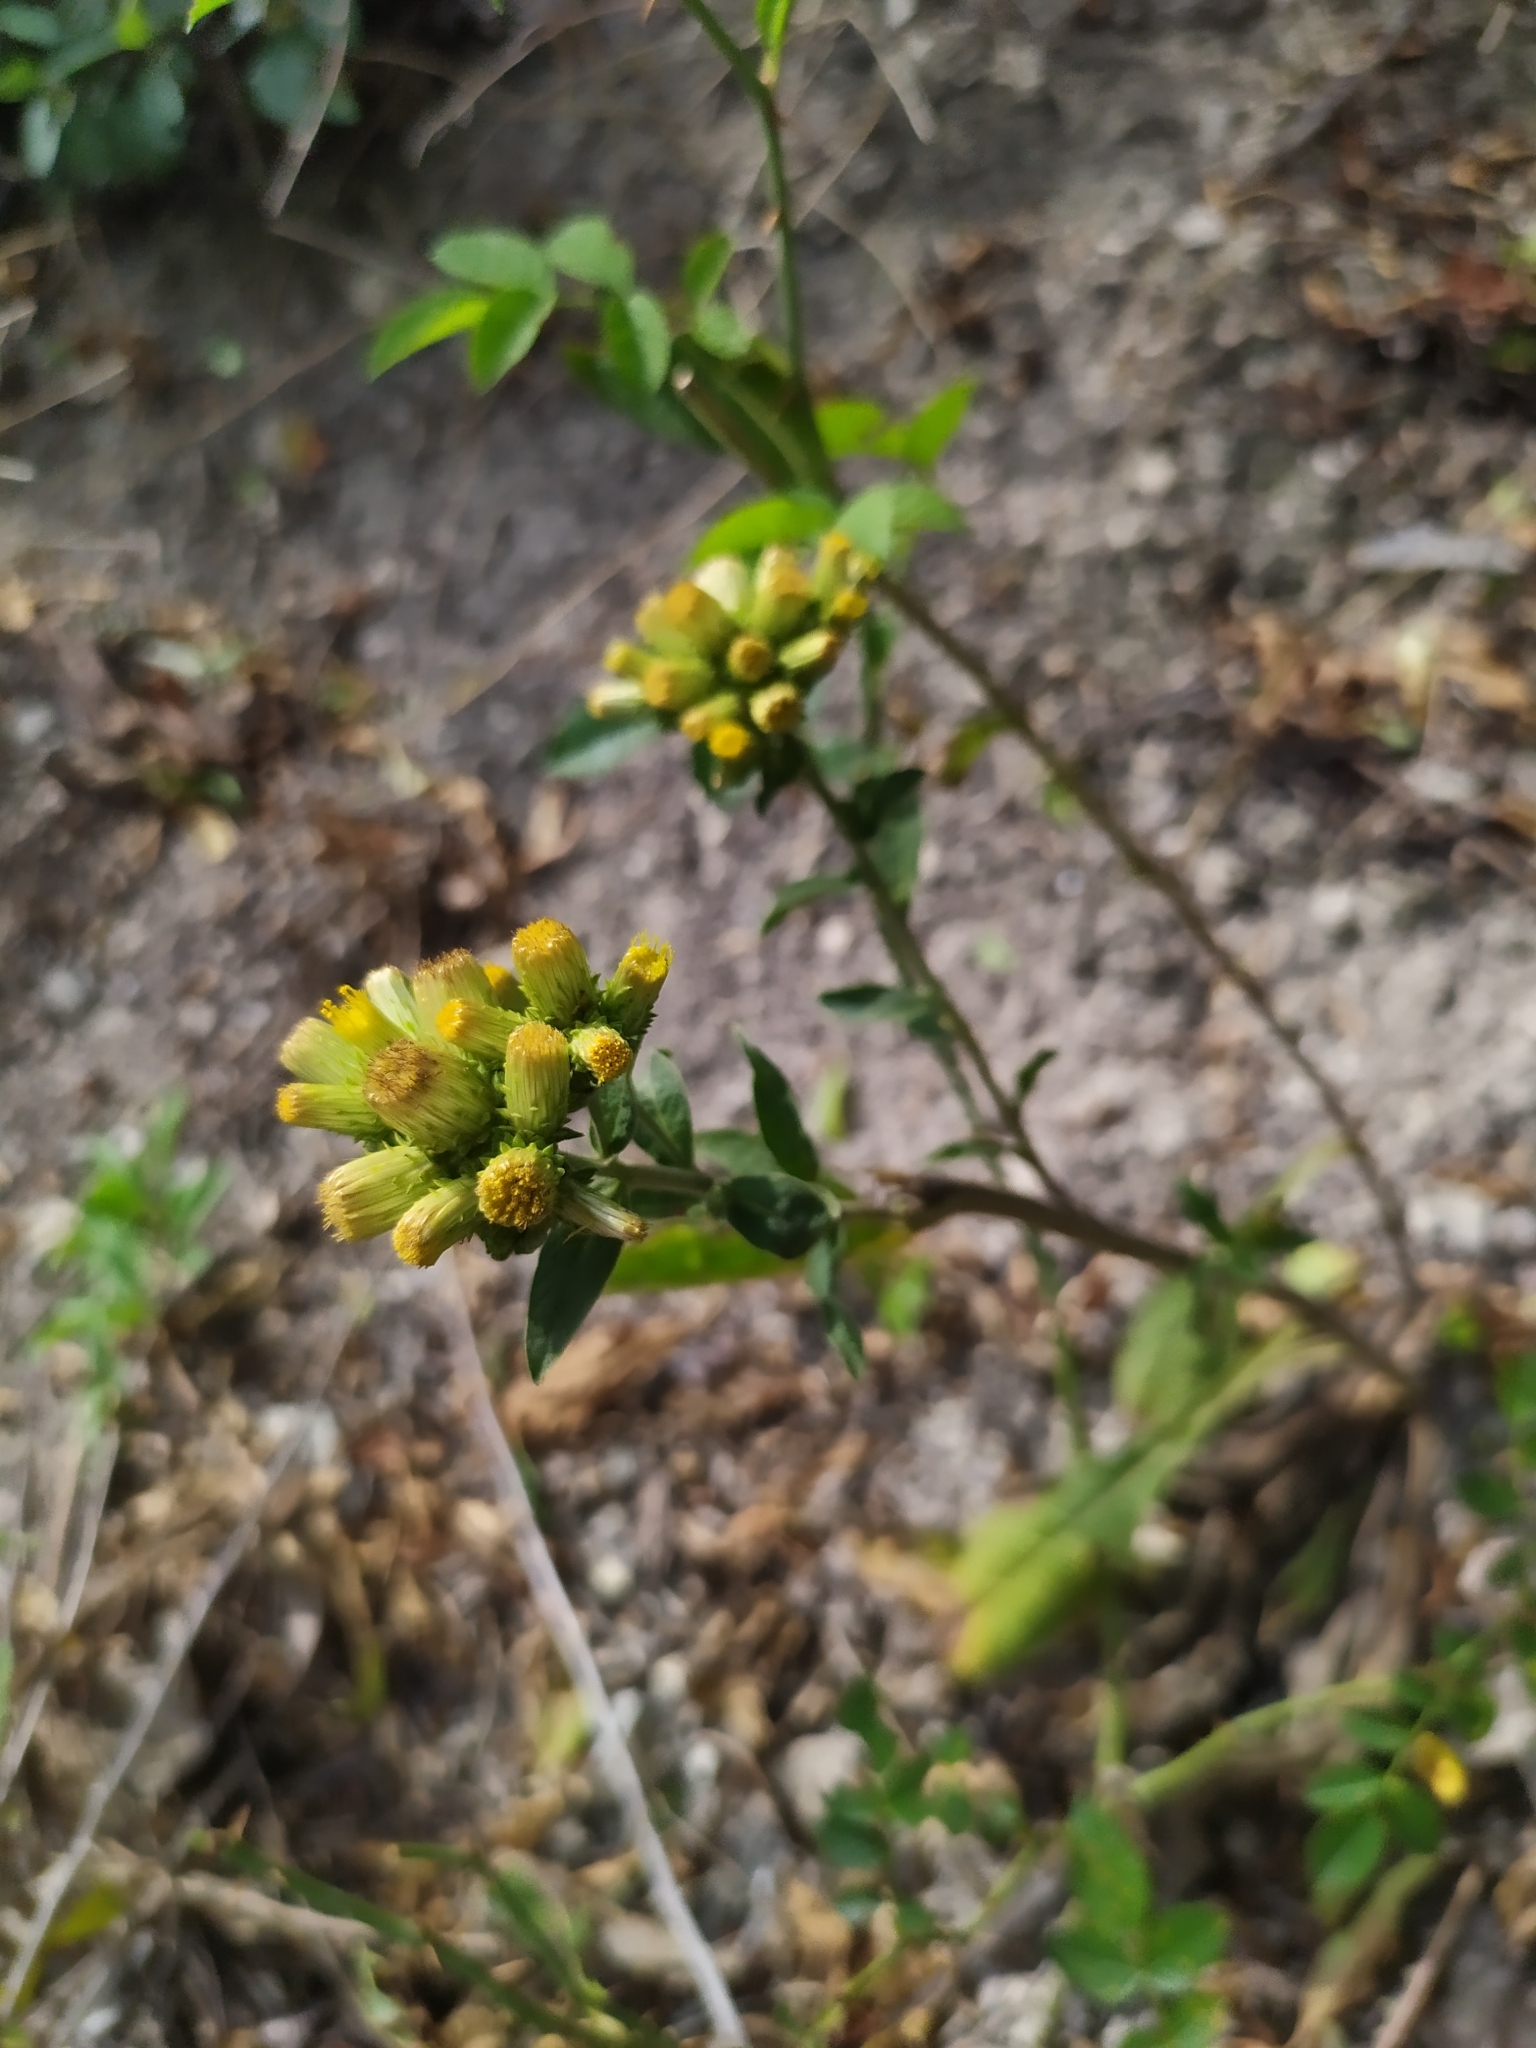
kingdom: Plantae
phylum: Tracheophyta
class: Magnoliopsida
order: Asterales
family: Asteraceae
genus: Pentanema
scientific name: Pentanema squarrosum
